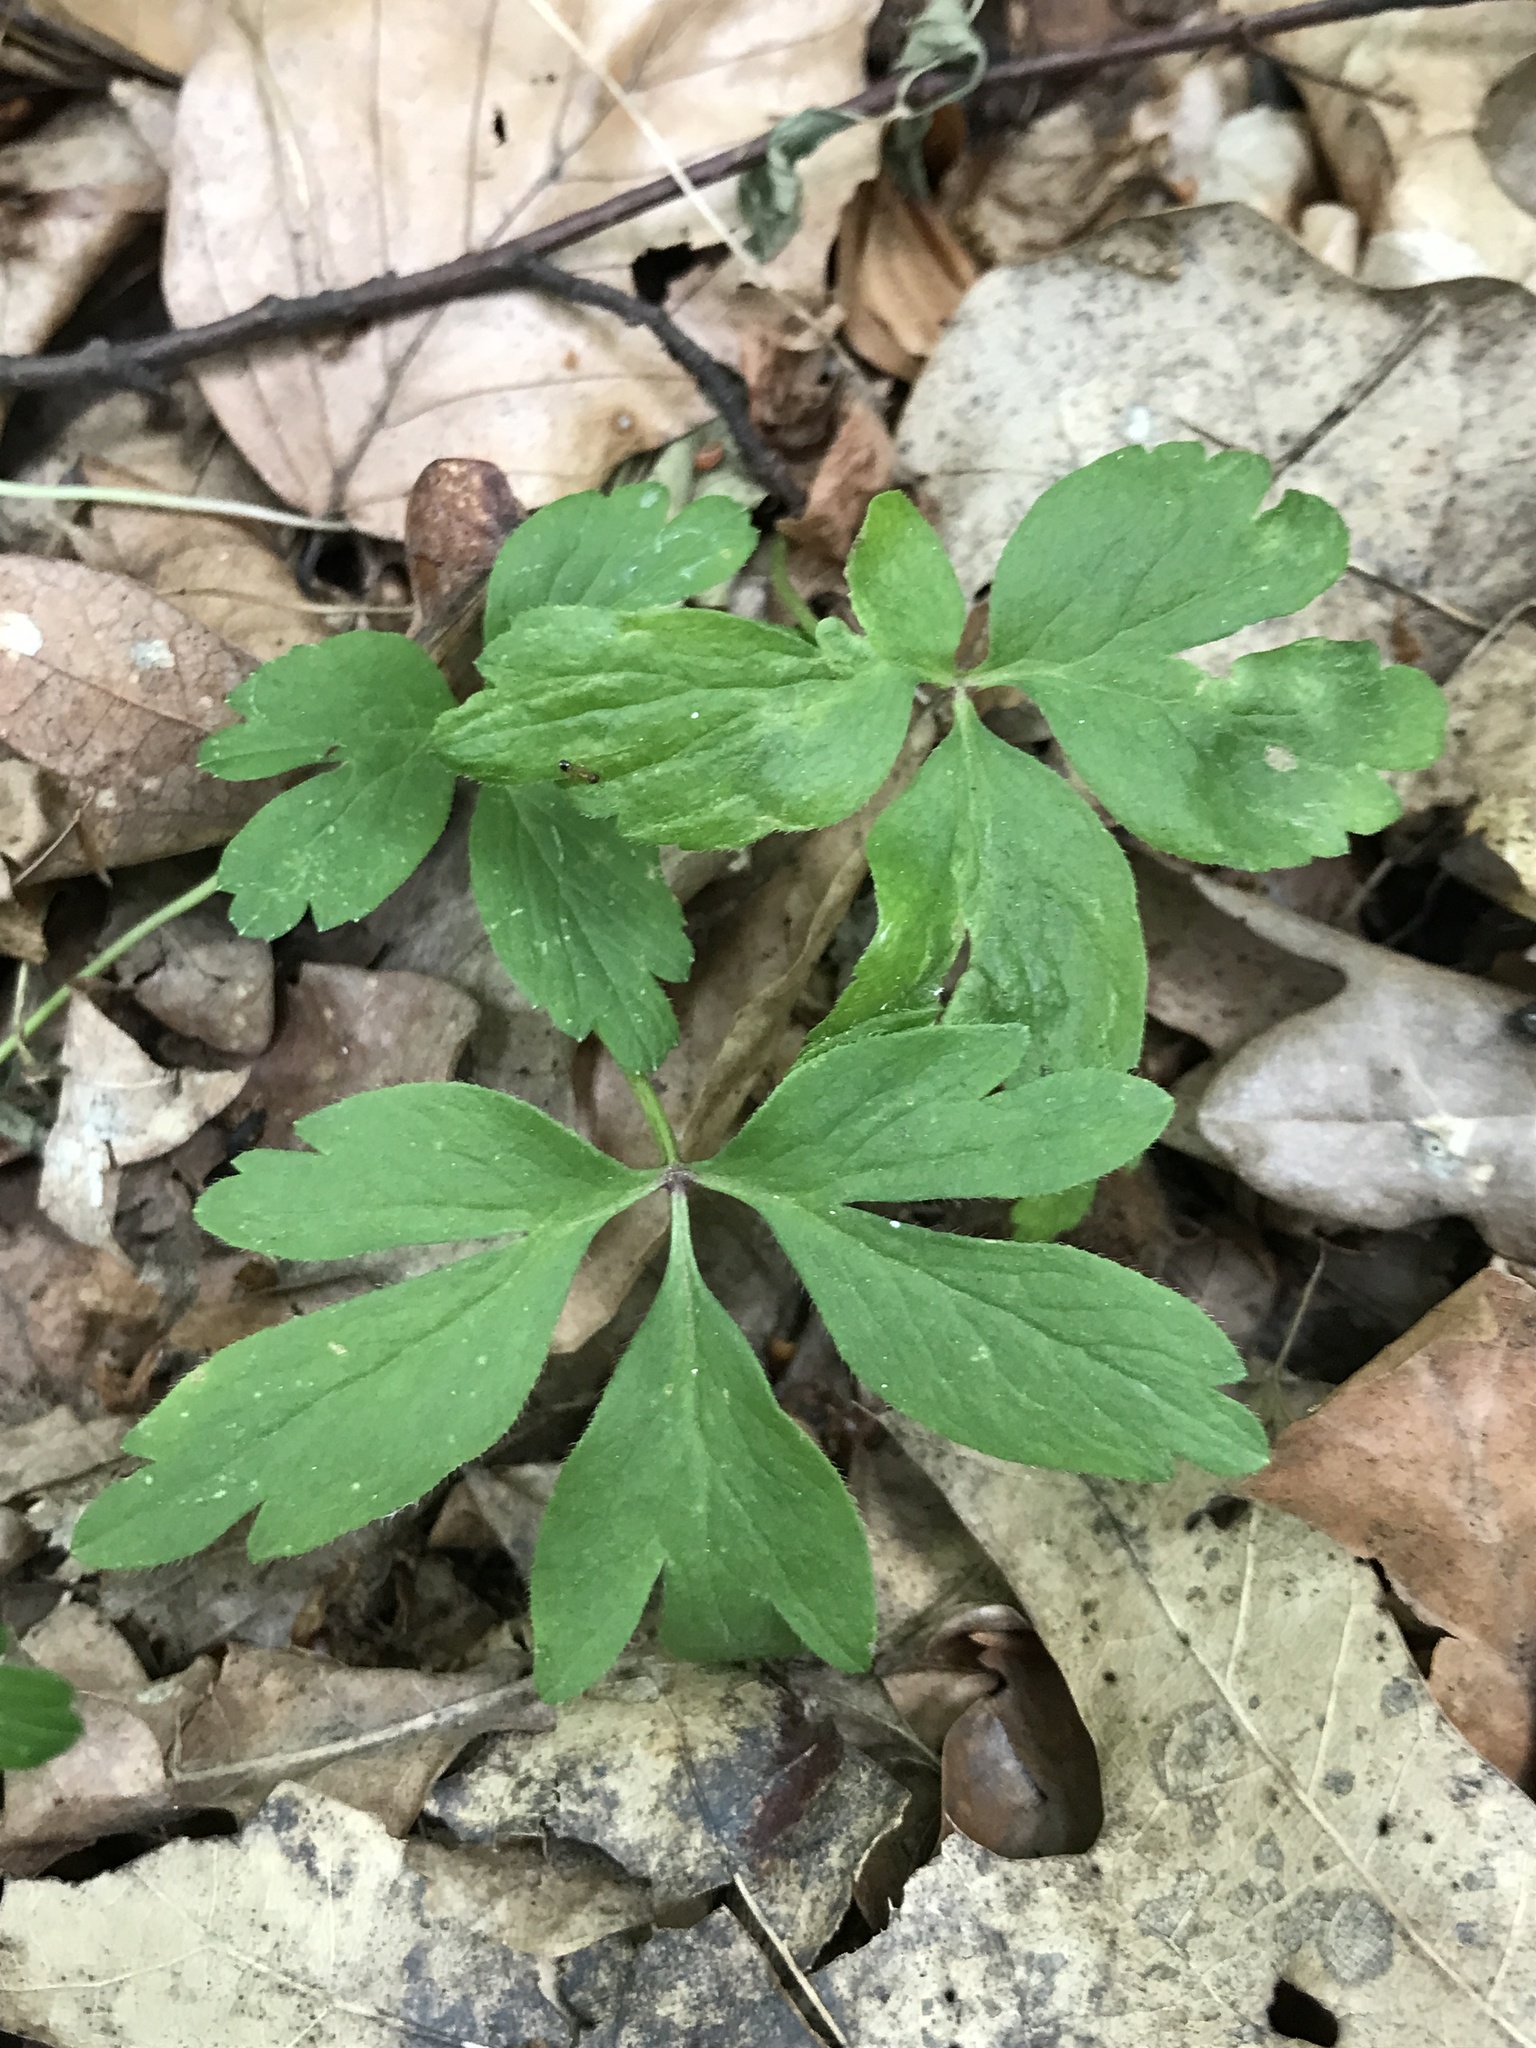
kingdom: Plantae
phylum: Tracheophyta
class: Magnoliopsida
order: Ranunculales
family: Ranunculaceae
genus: Anemone
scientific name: Anemone nemorosa
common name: Wood anemone
